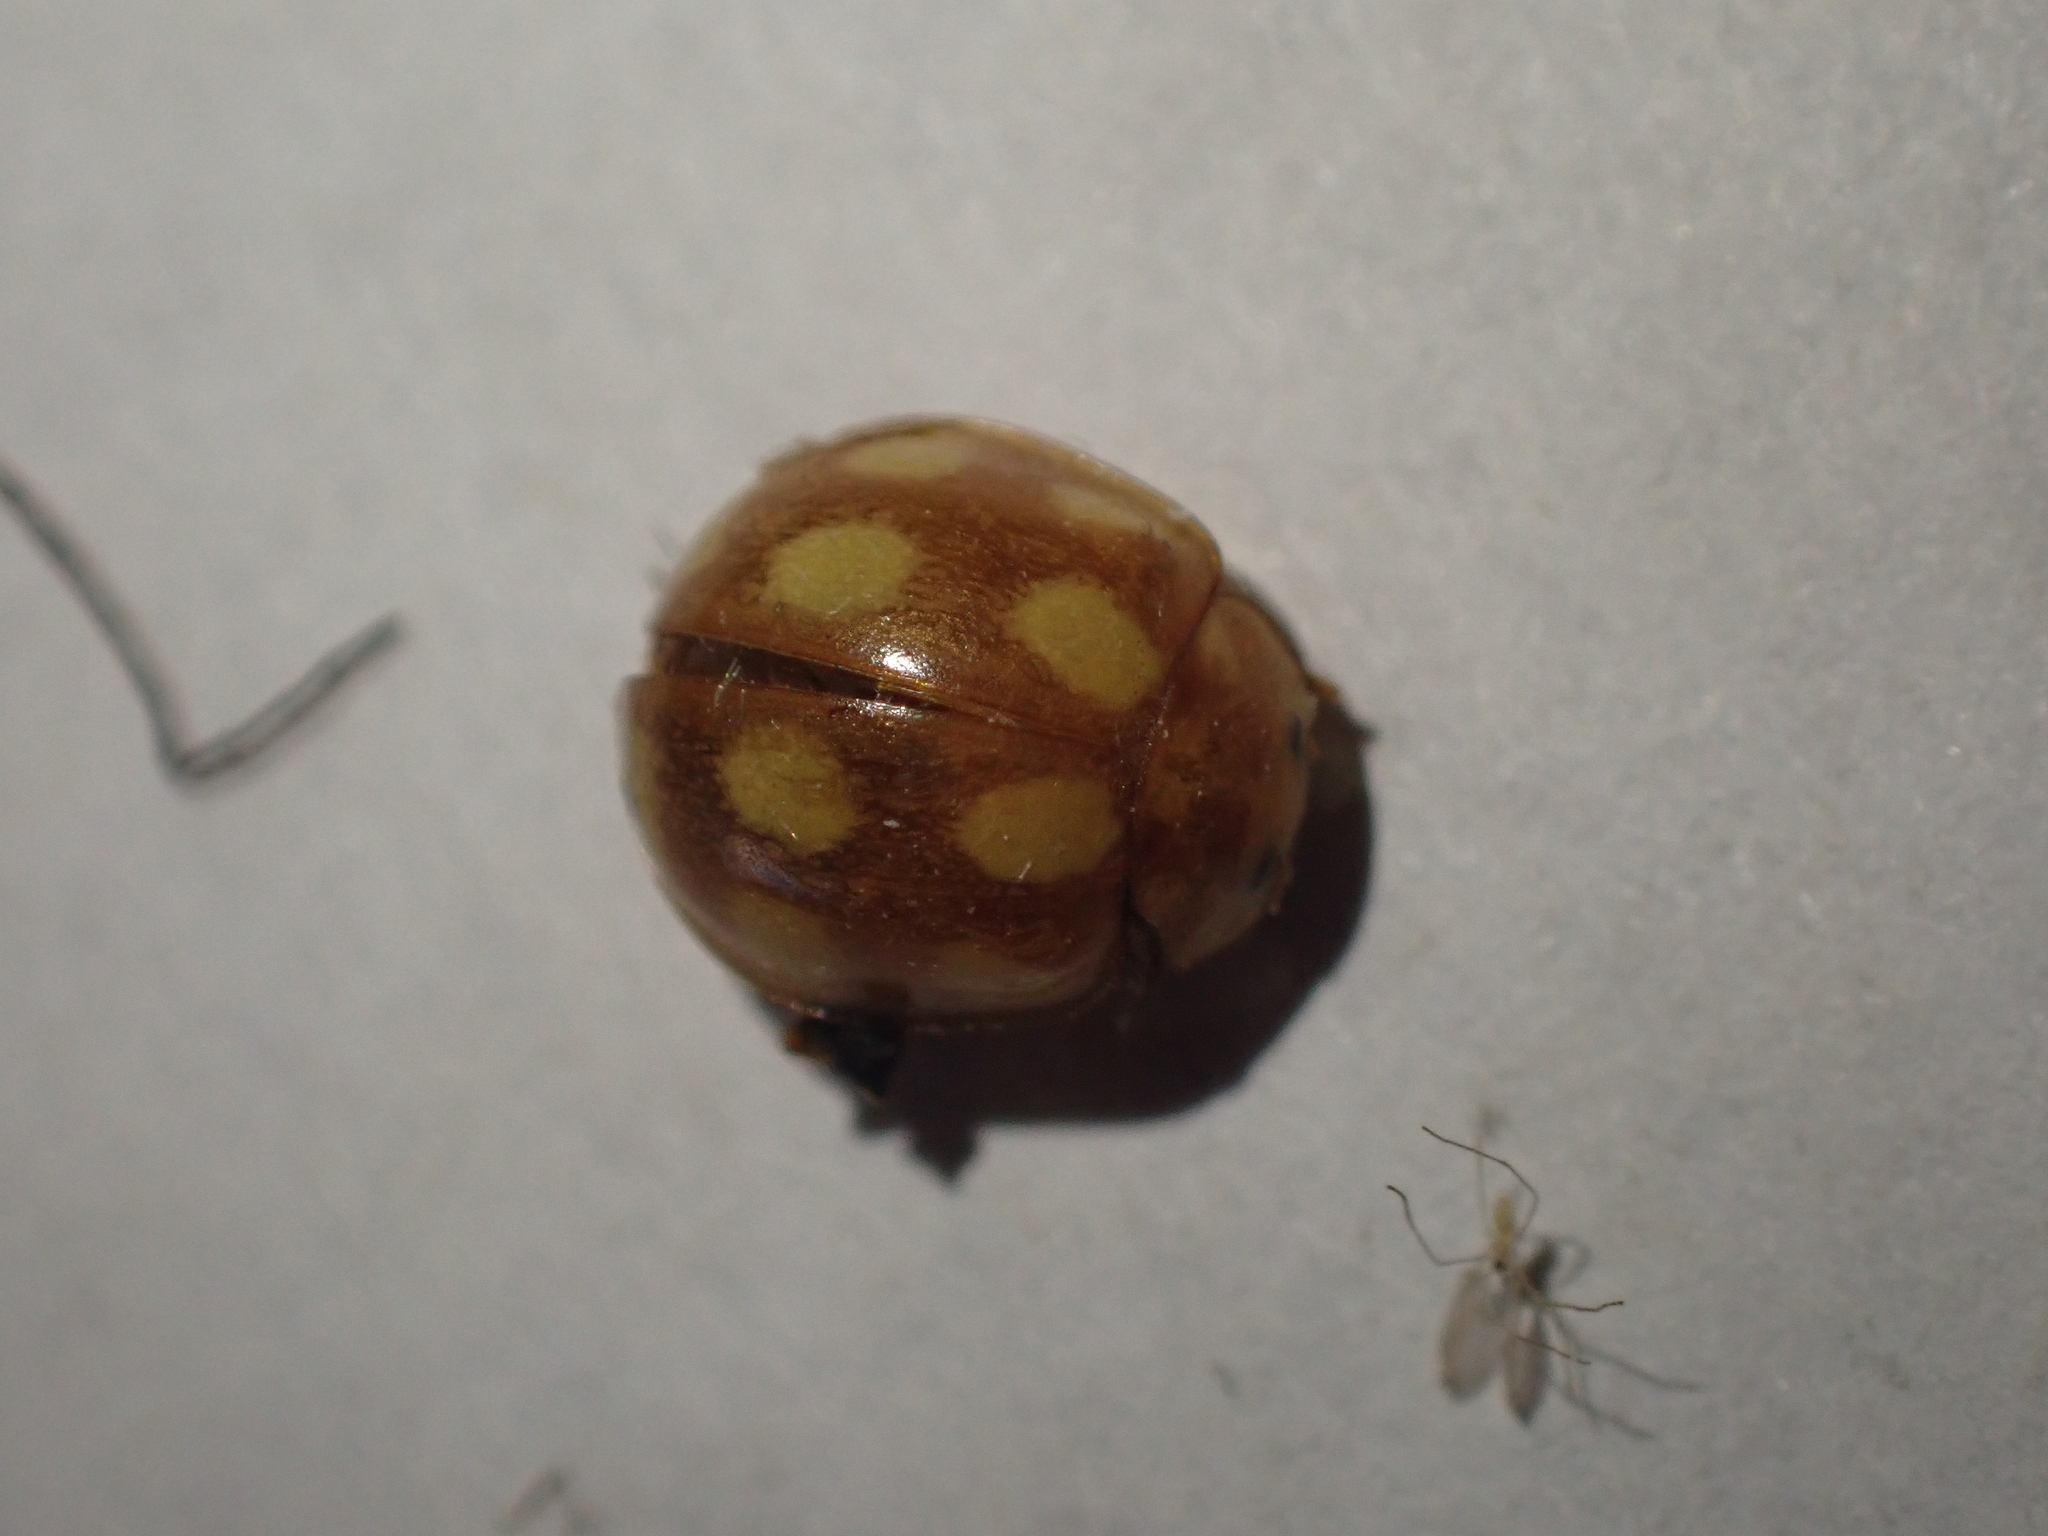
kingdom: Animalia
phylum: Arthropoda
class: Insecta
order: Coleoptera
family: Coccinellidae
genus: Calvia
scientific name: Calvia decemguttata
